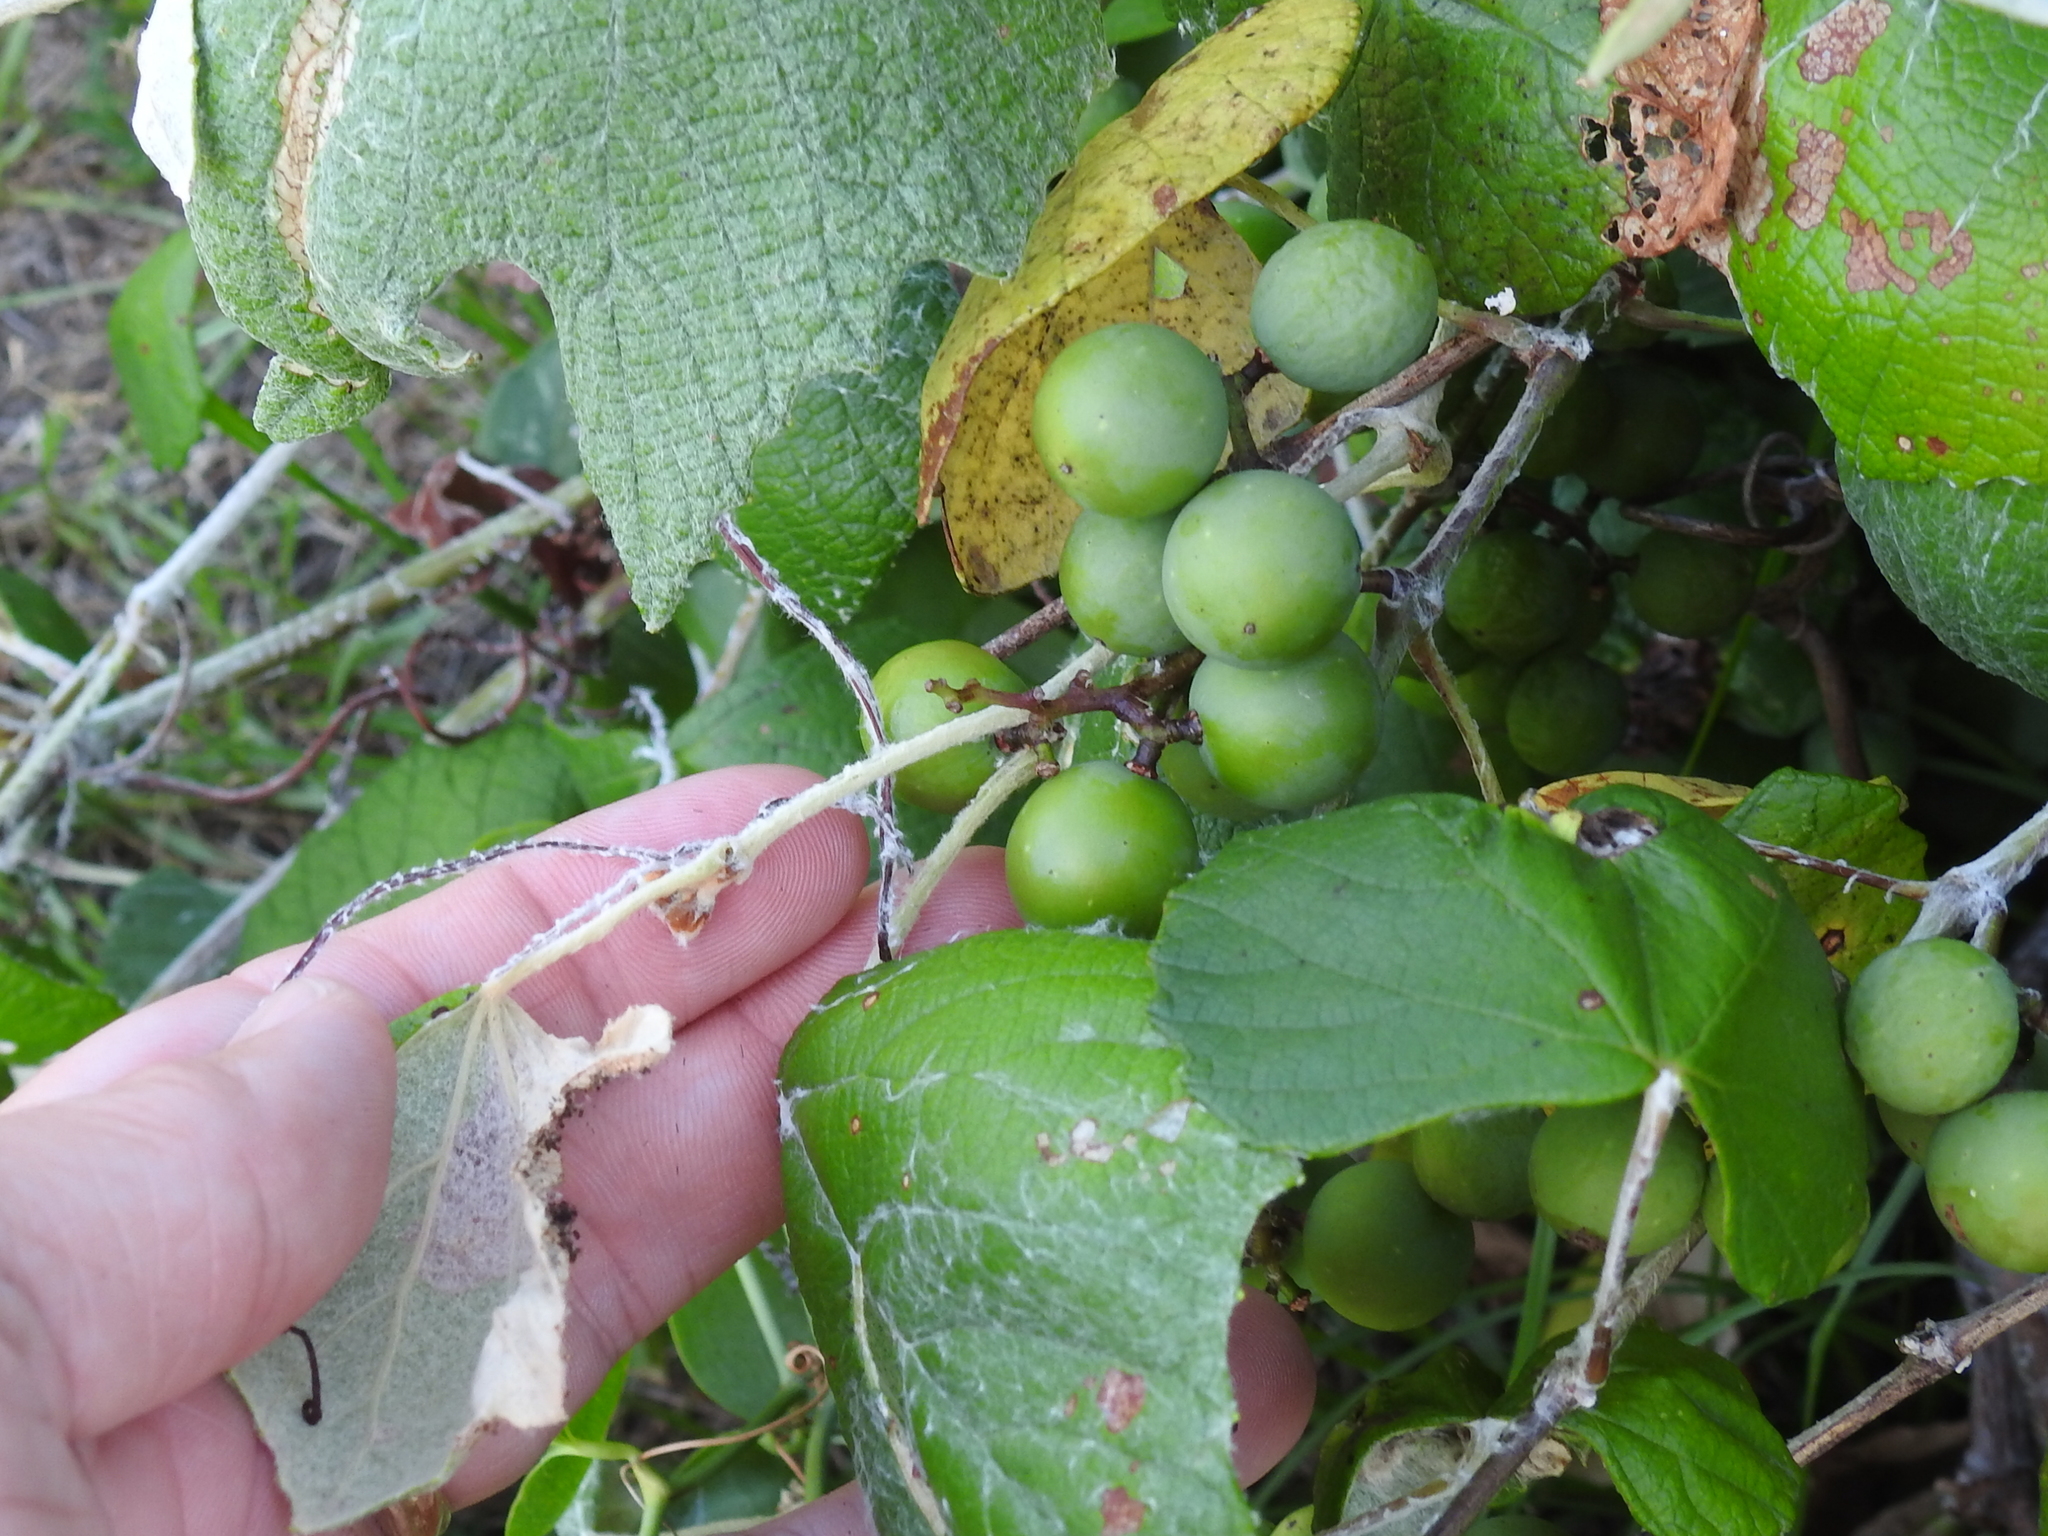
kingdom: Plantae
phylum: Tracheophyta
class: Magnoliopsida
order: Vitales
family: Vitaceae
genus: Vitis
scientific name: Vitis mustangensis
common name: Mustang grape
